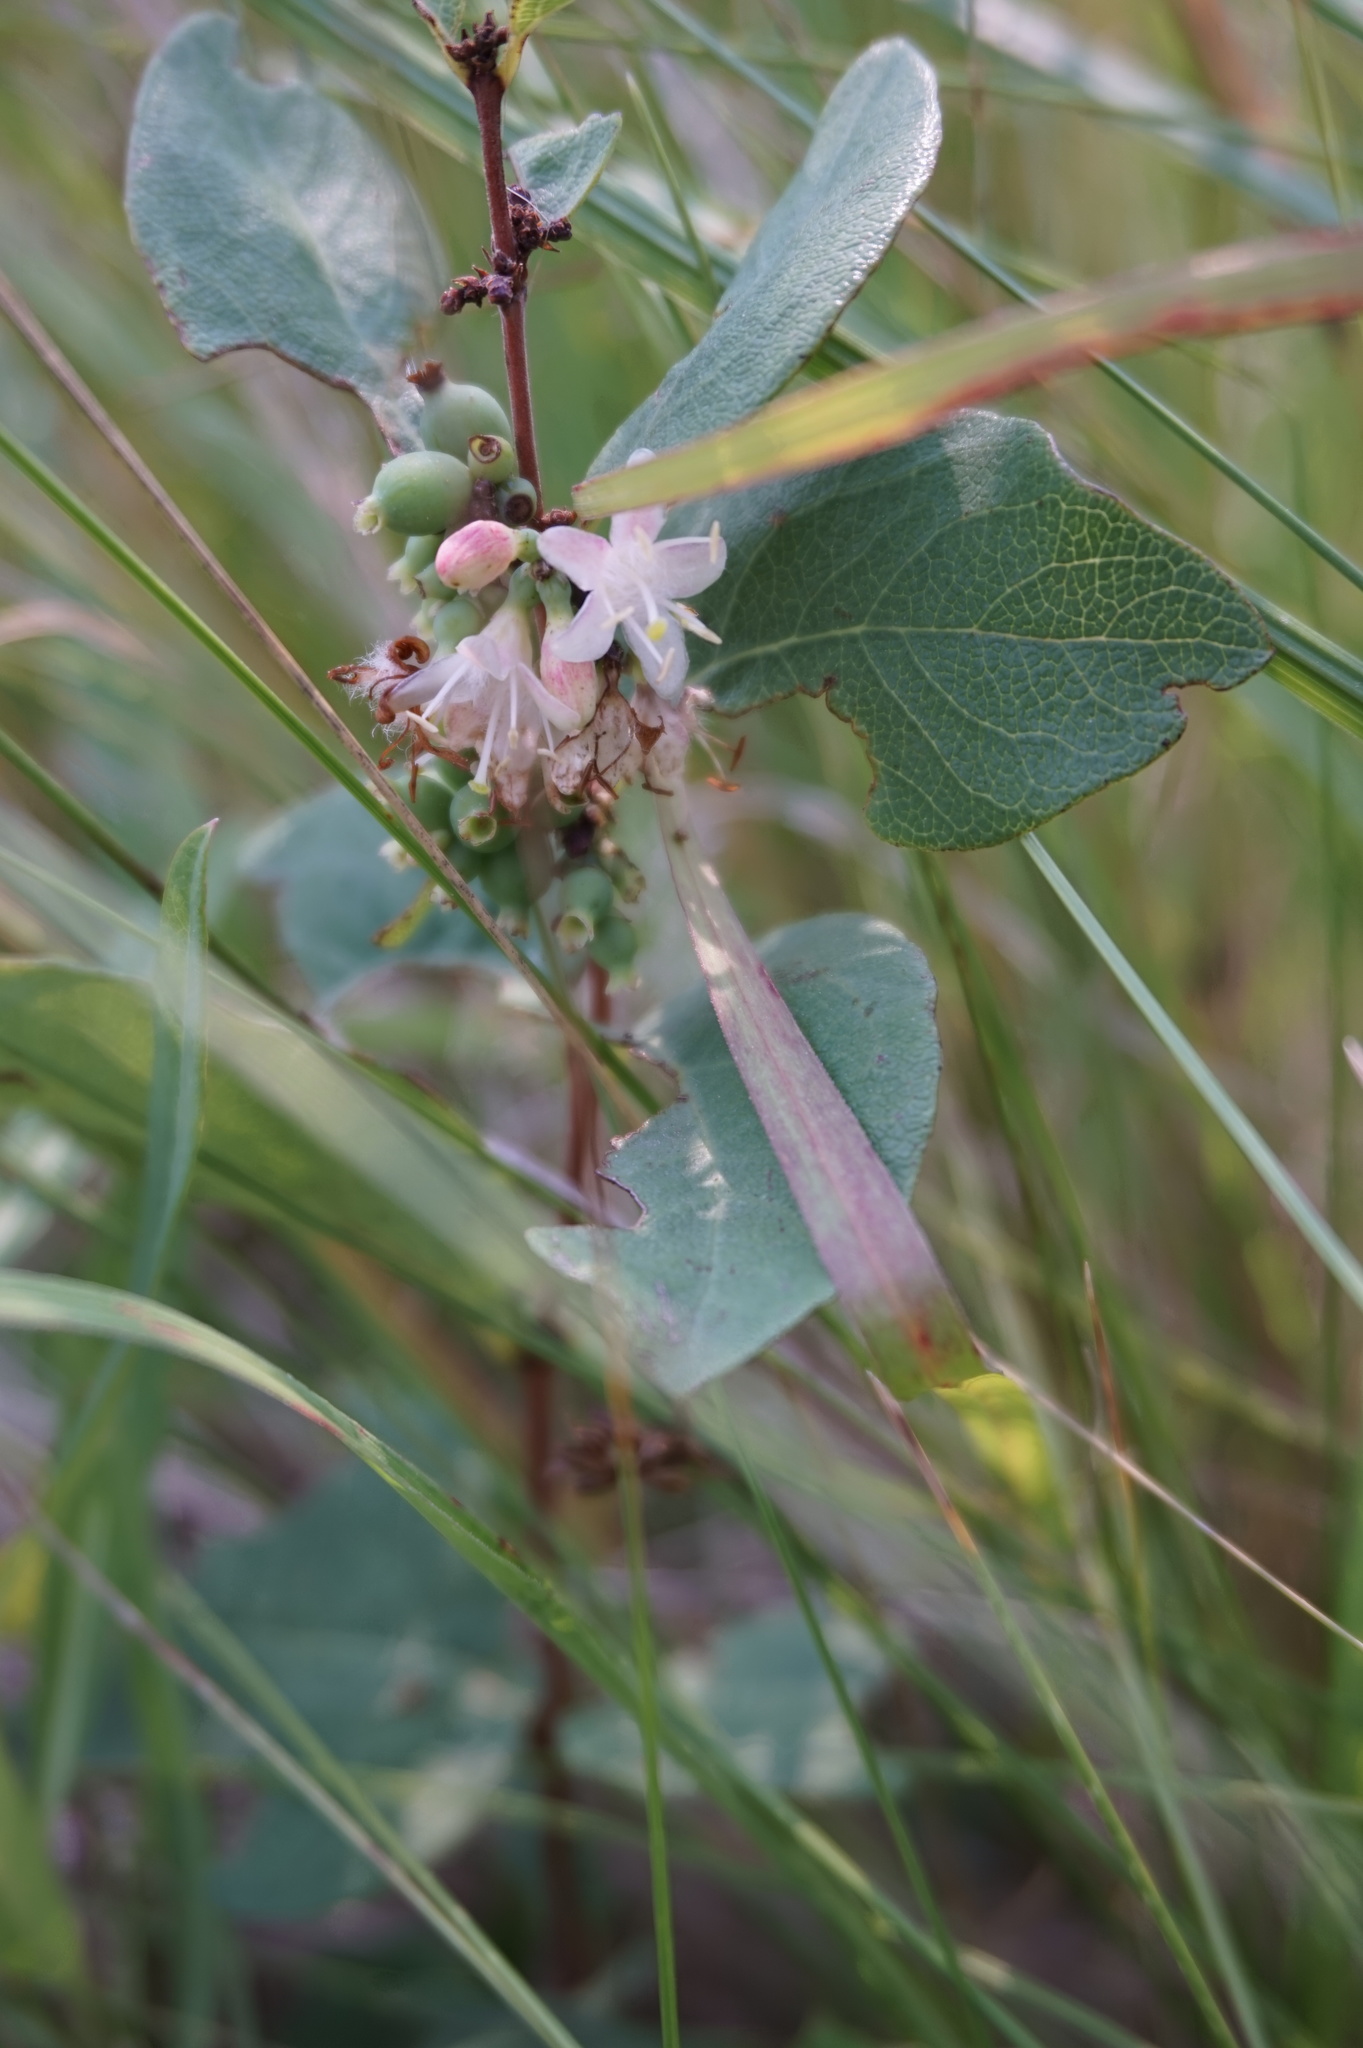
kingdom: Plantae
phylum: Tracheophyta
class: Magnoliopsida
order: Dipsacales
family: Caprifoliaceae
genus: Symphoricarpos
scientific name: Symphoricarpos occidentalis
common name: Wolfberry
